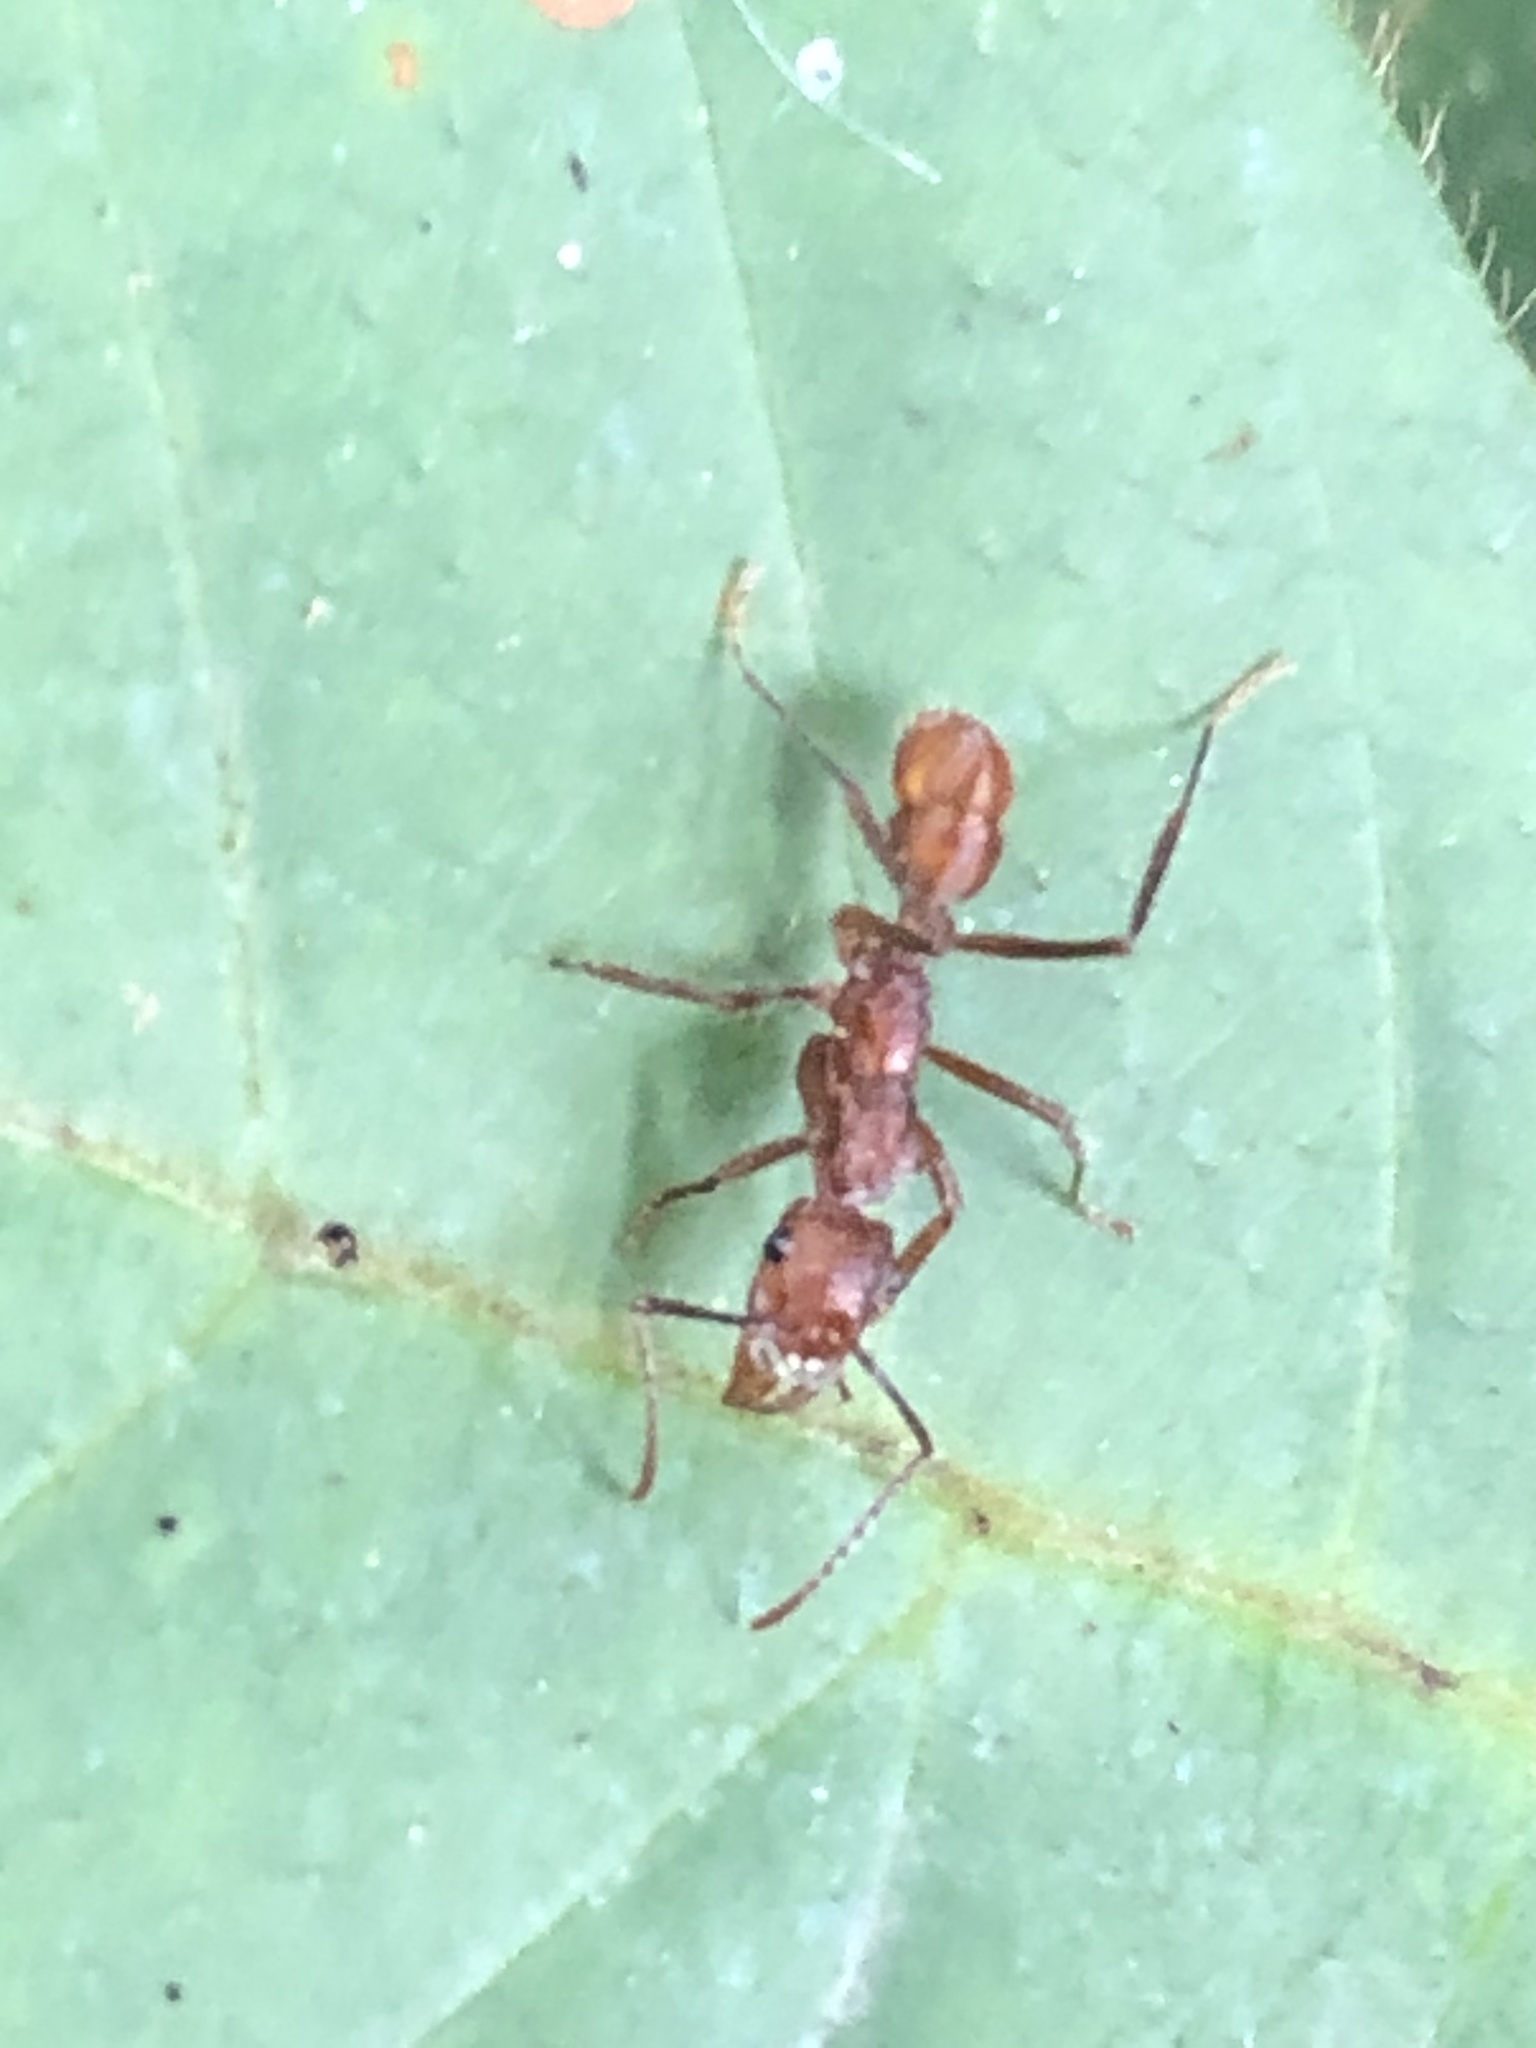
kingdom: Animalia
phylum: Arthropoda
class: Insecta
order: Hymenoptera
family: Formicidae
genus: Ectatomma
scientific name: Ectatomma tuberculatum
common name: Ant
